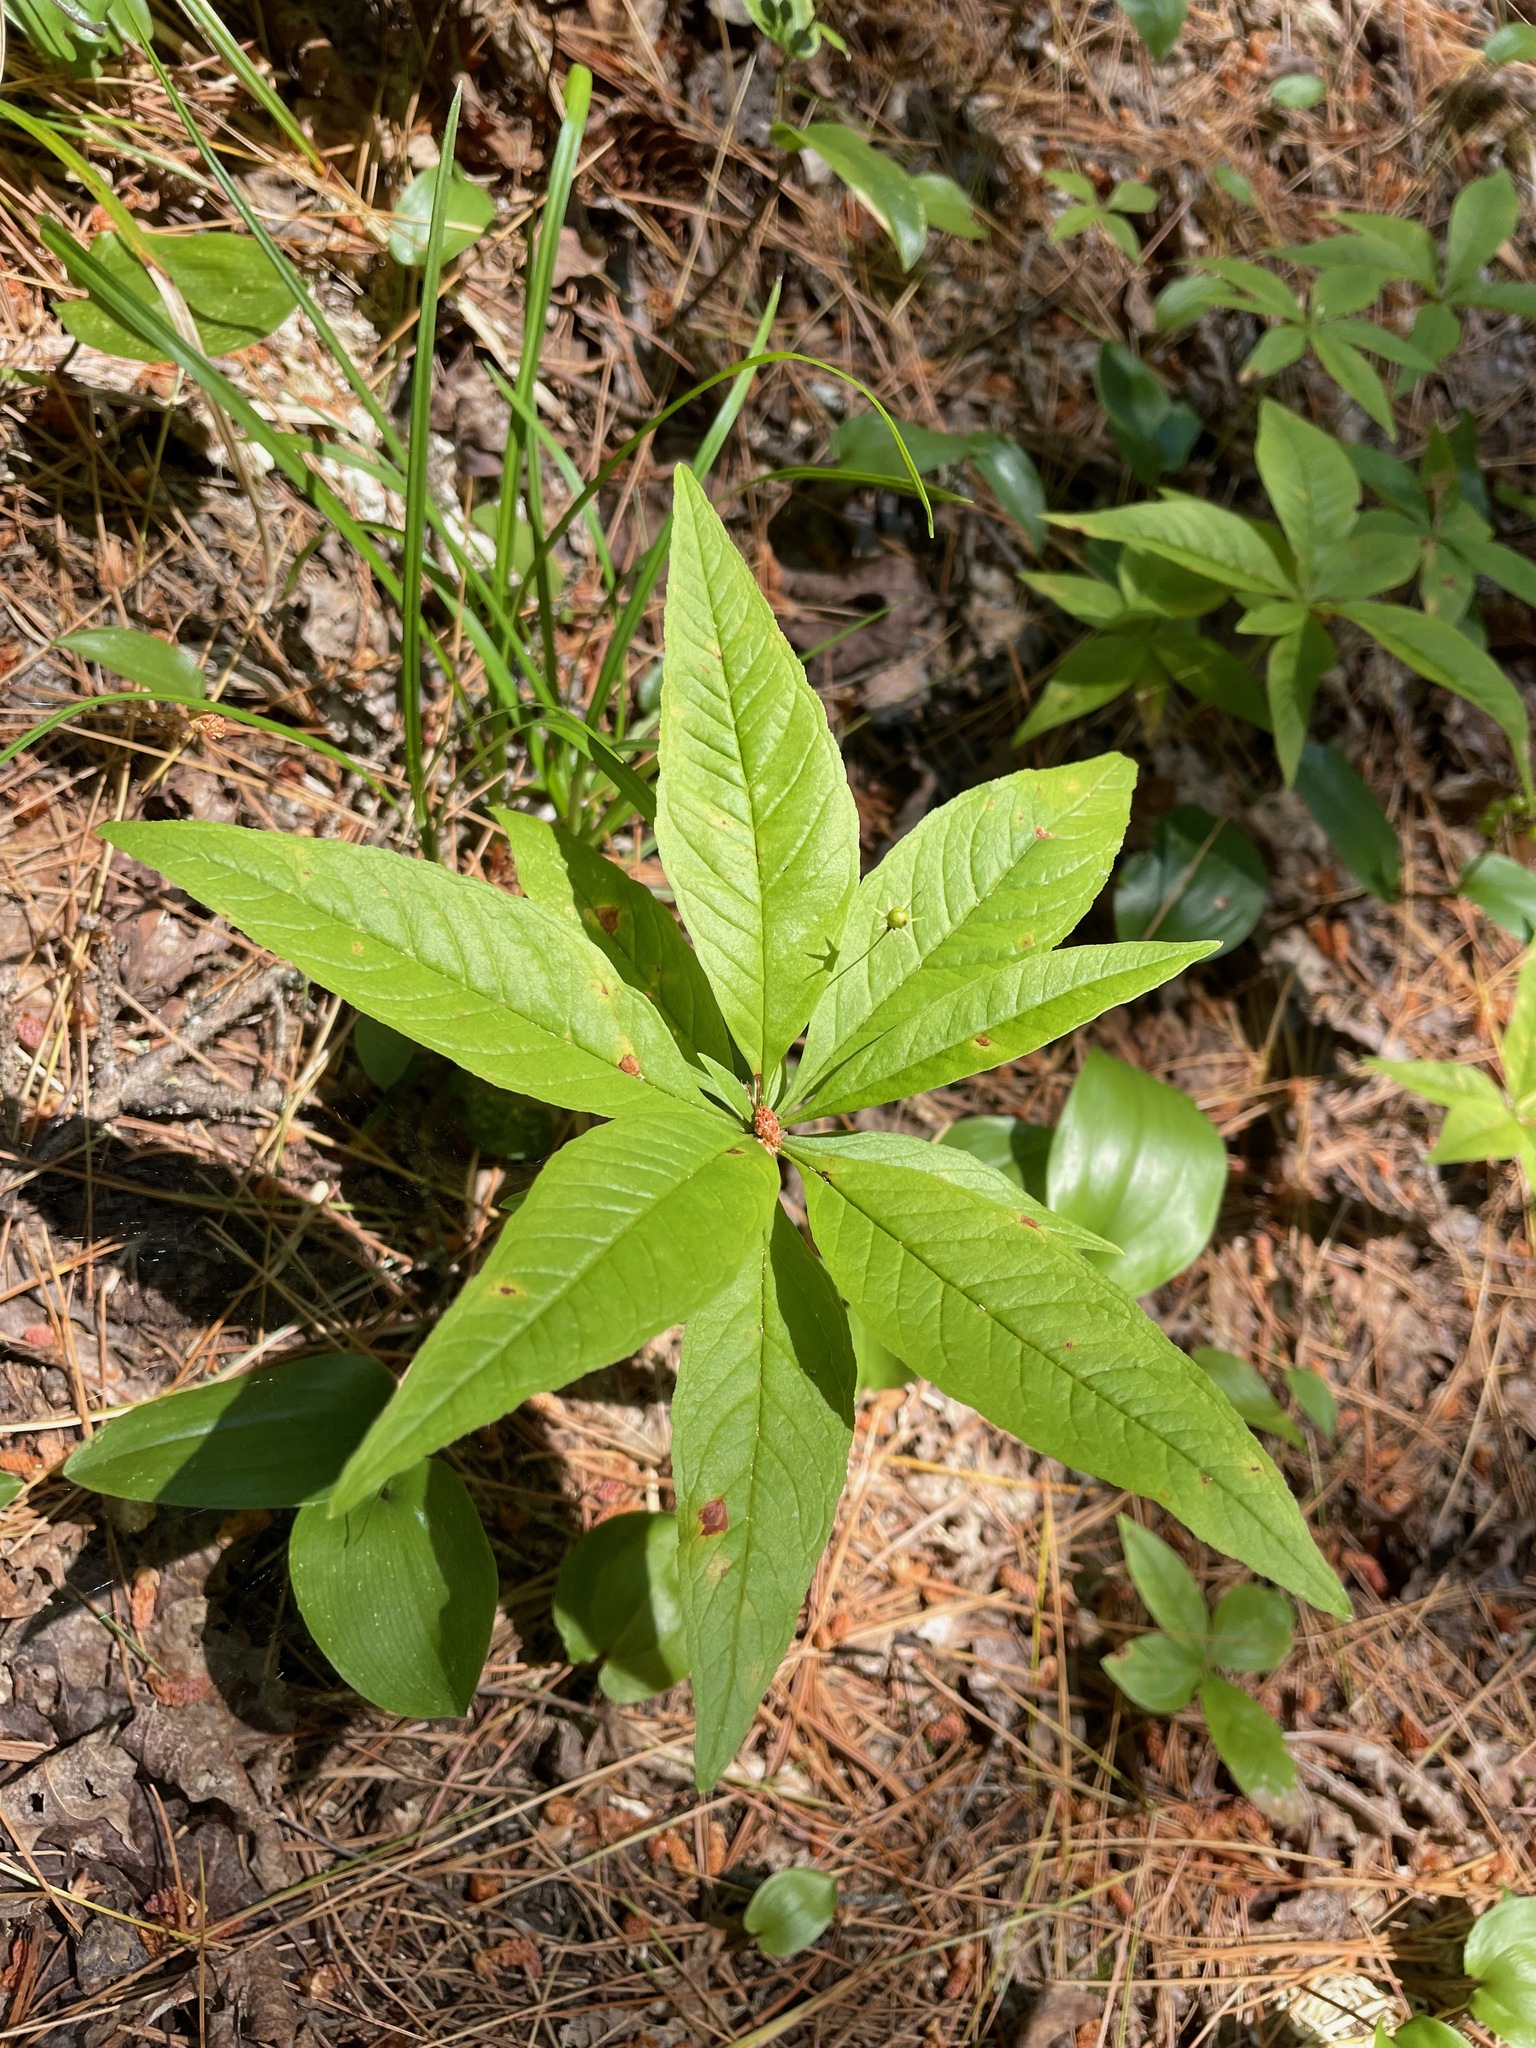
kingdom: Plantae
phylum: Tracheophyta
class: Magnoliopsida
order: Ericales
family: Primulaceae
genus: Lysimachia
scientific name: Lysimachia borealis
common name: American starflower
